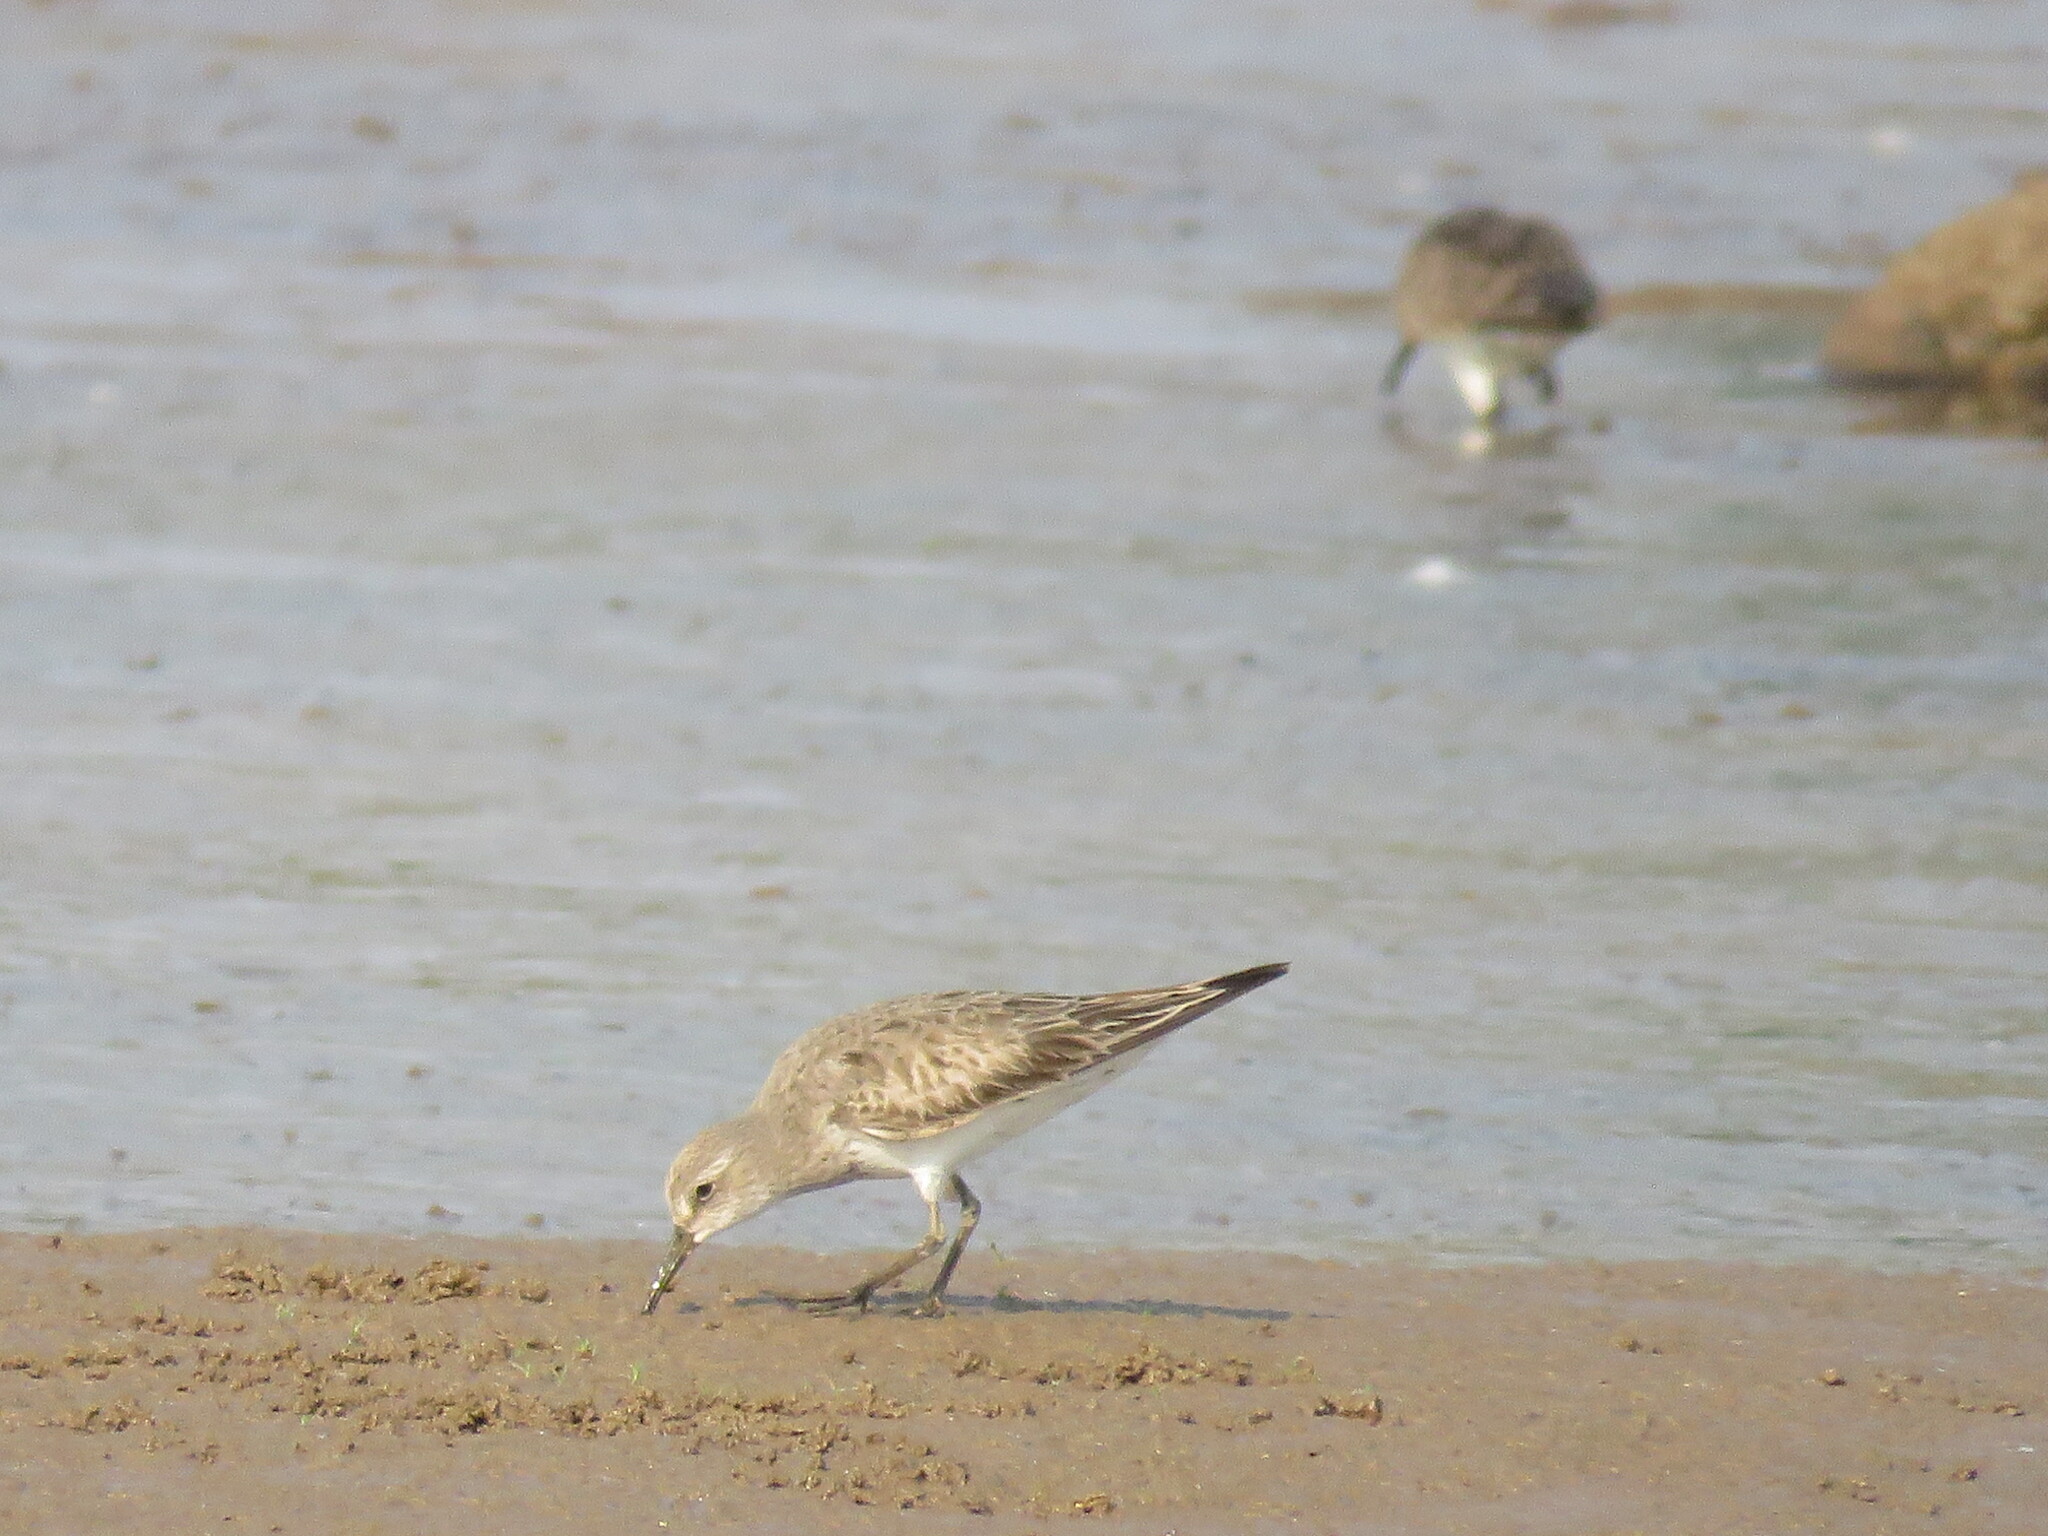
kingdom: Animalia
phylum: Chordata
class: Aves
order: Charadriiformes
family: Scolopacidae
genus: Calidris
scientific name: Calidris fuscicollis
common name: White-rumped sandpiper
